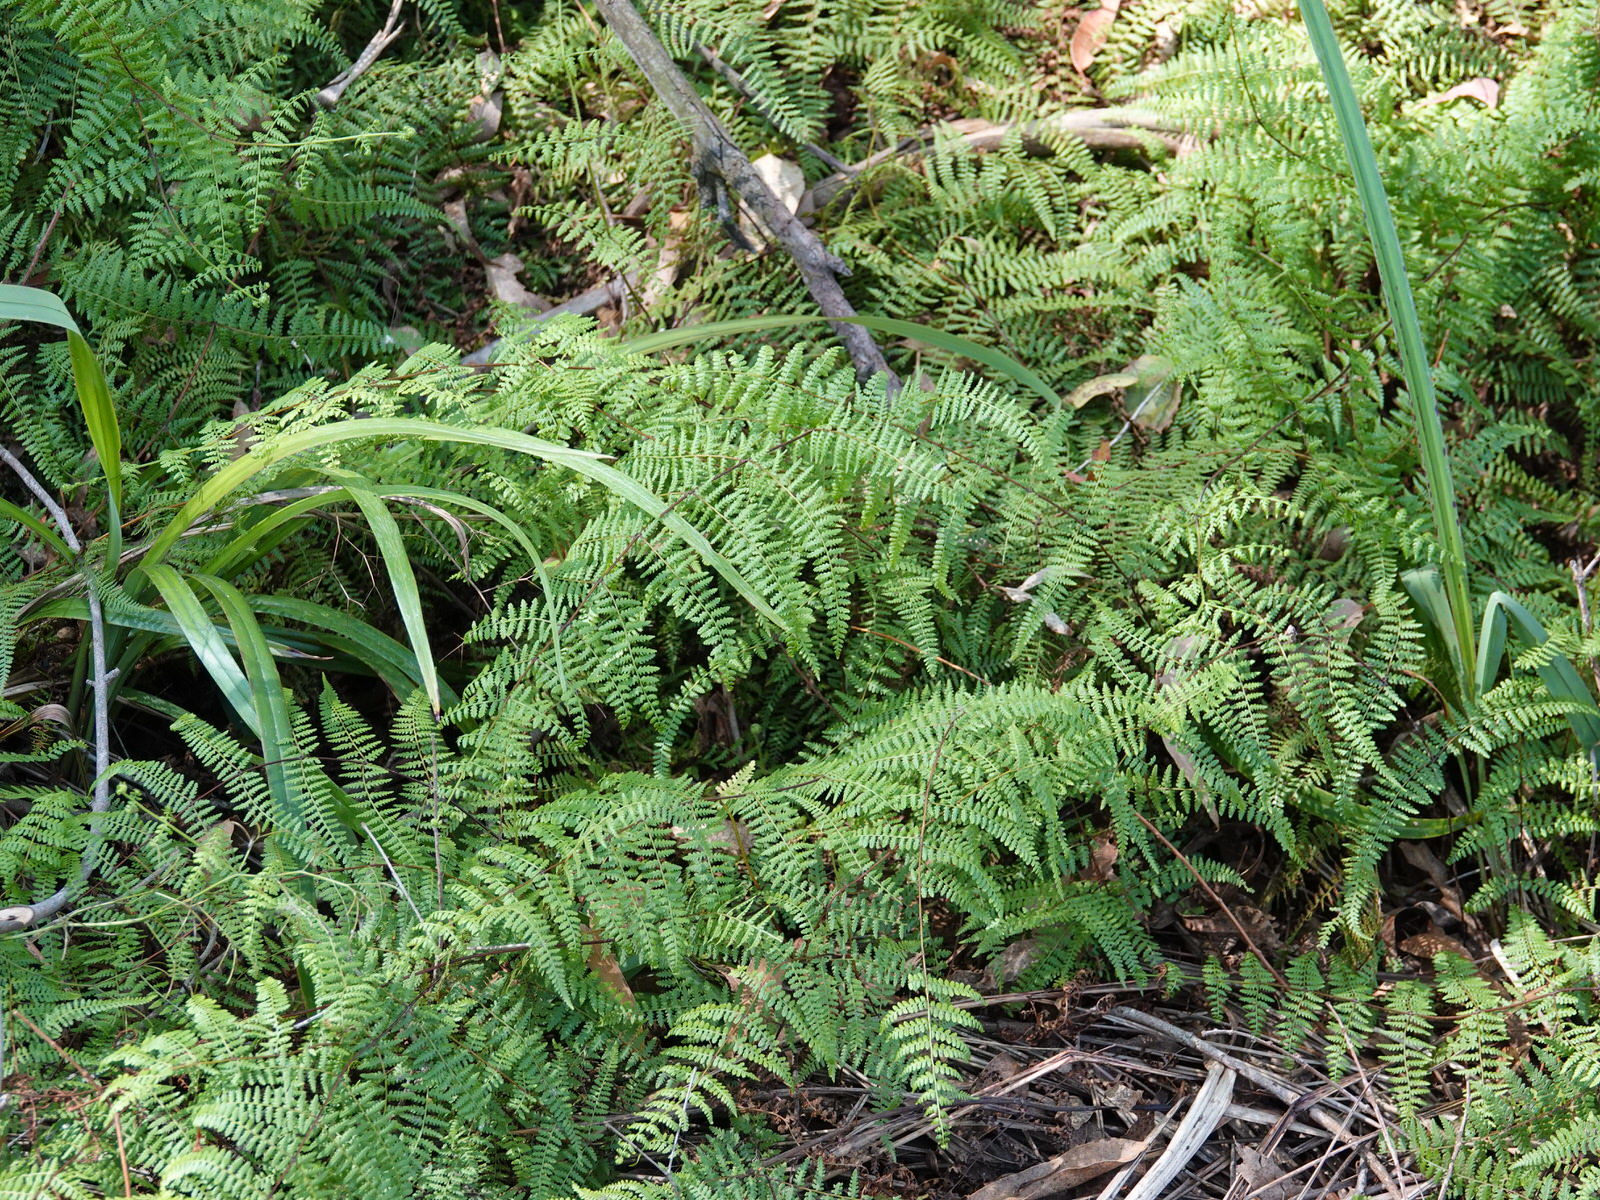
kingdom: Plantae
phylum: Tracheophyta
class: Polypodiopsida
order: Polypodiales
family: Dennstaedtiaceae
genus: Hiya
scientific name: Hiya distans
